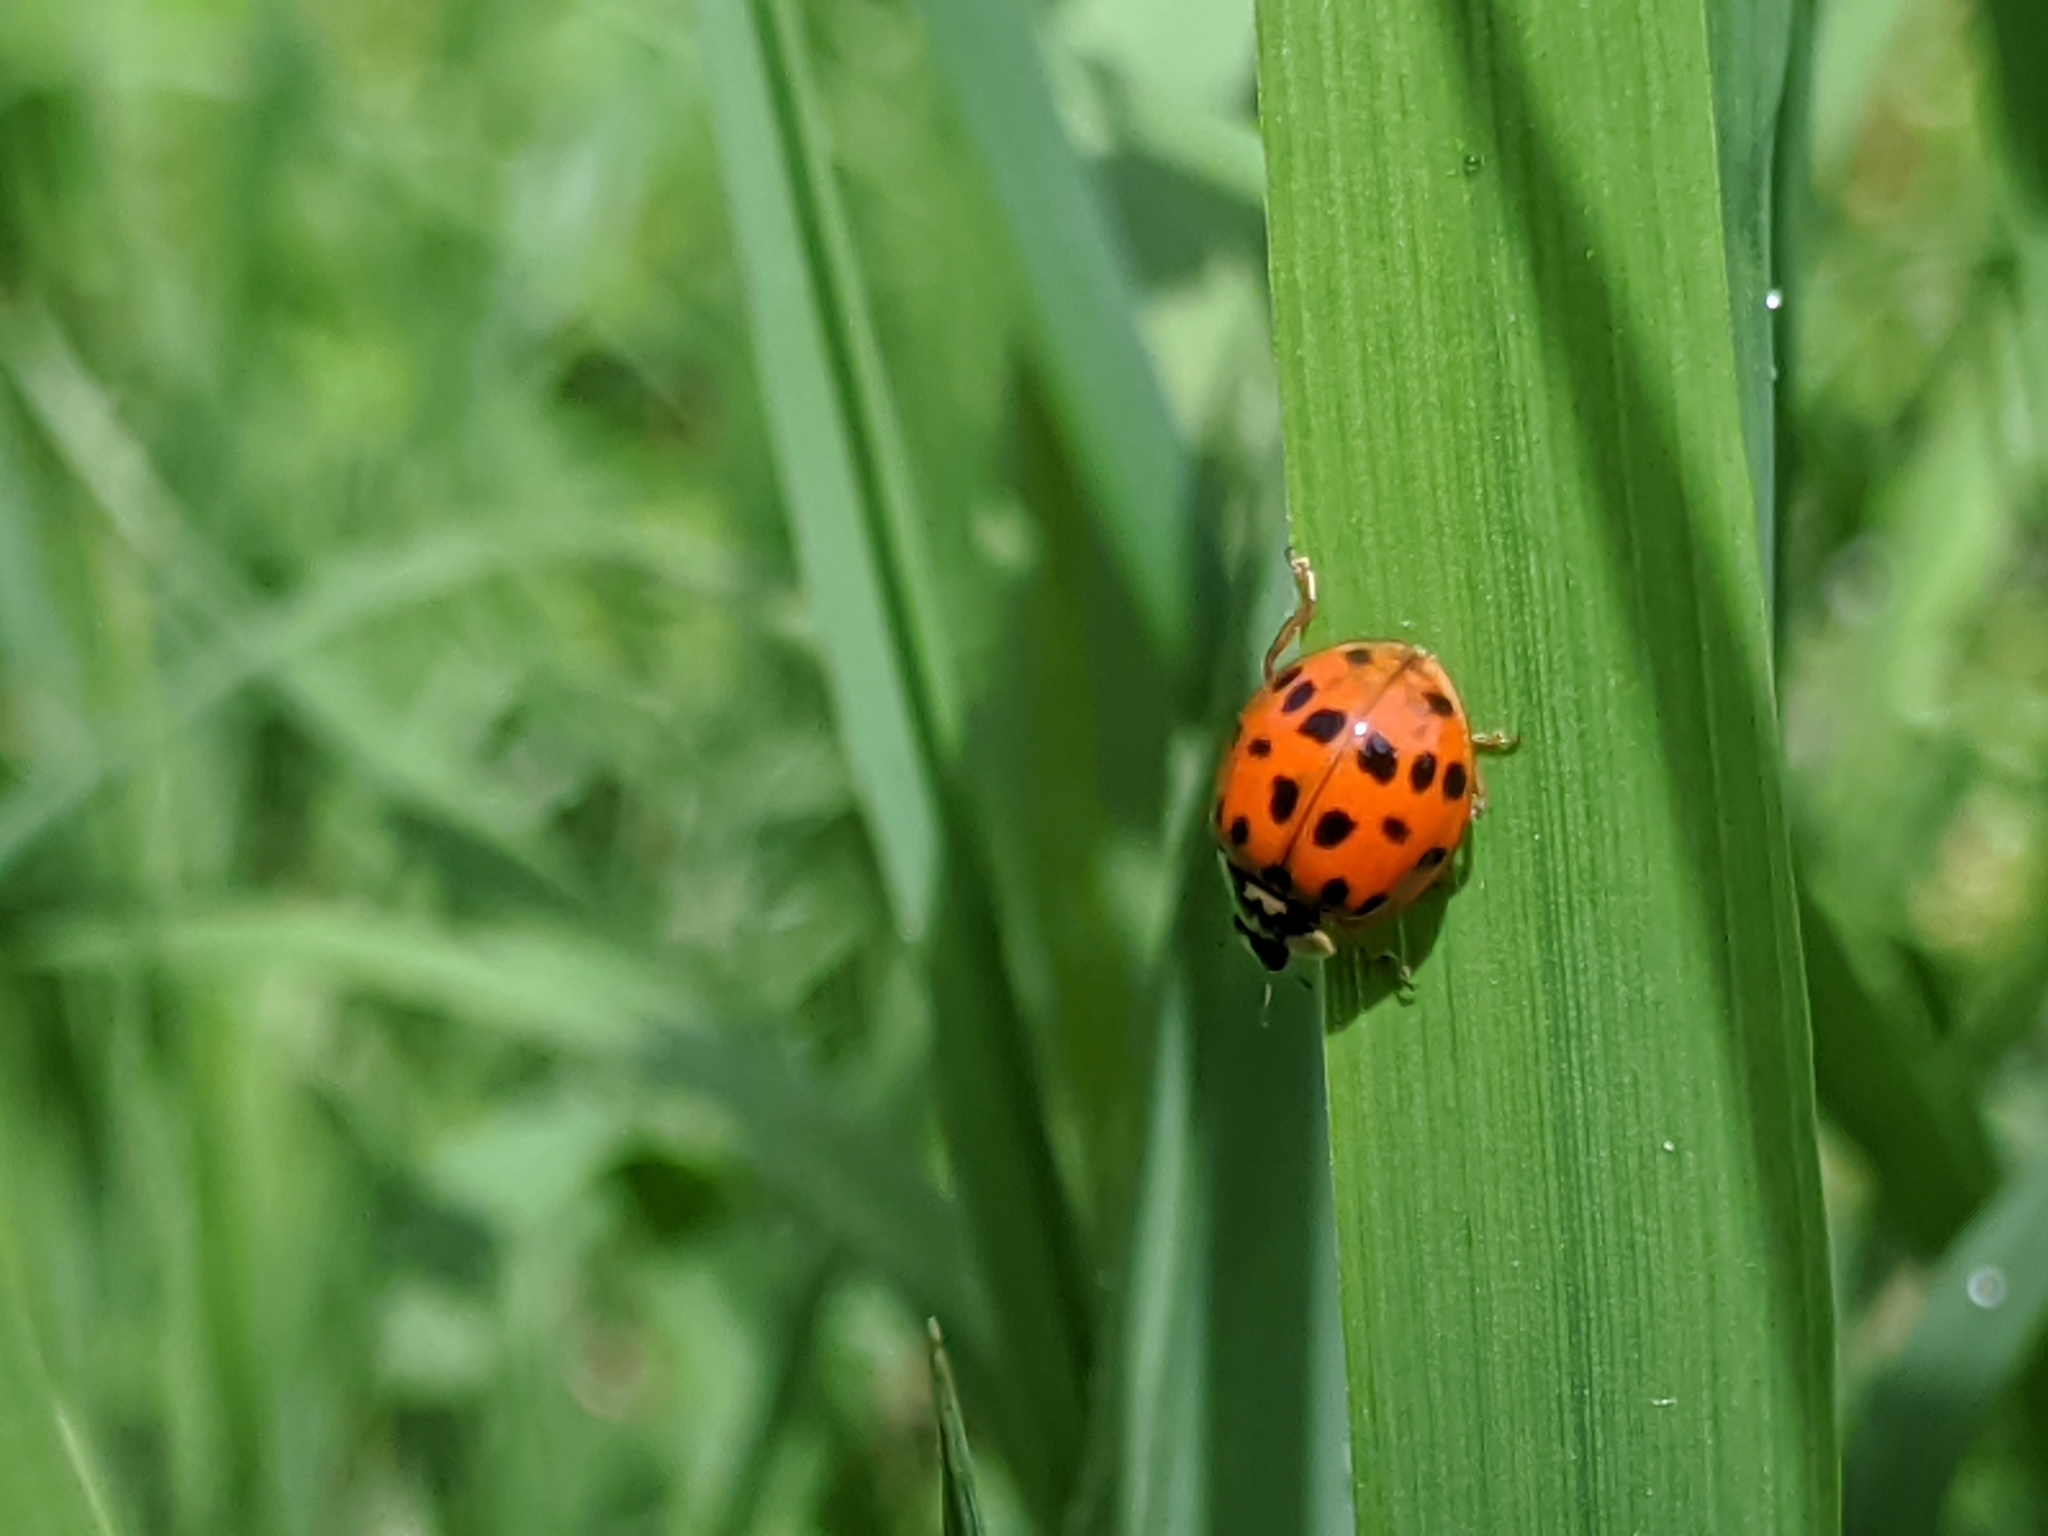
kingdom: Animalia
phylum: Arthropoda
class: Insecta
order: Coleoptera
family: Coccinellidae
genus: Harmonia
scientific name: Harmonia axyridis
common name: Harlequin ladybird
